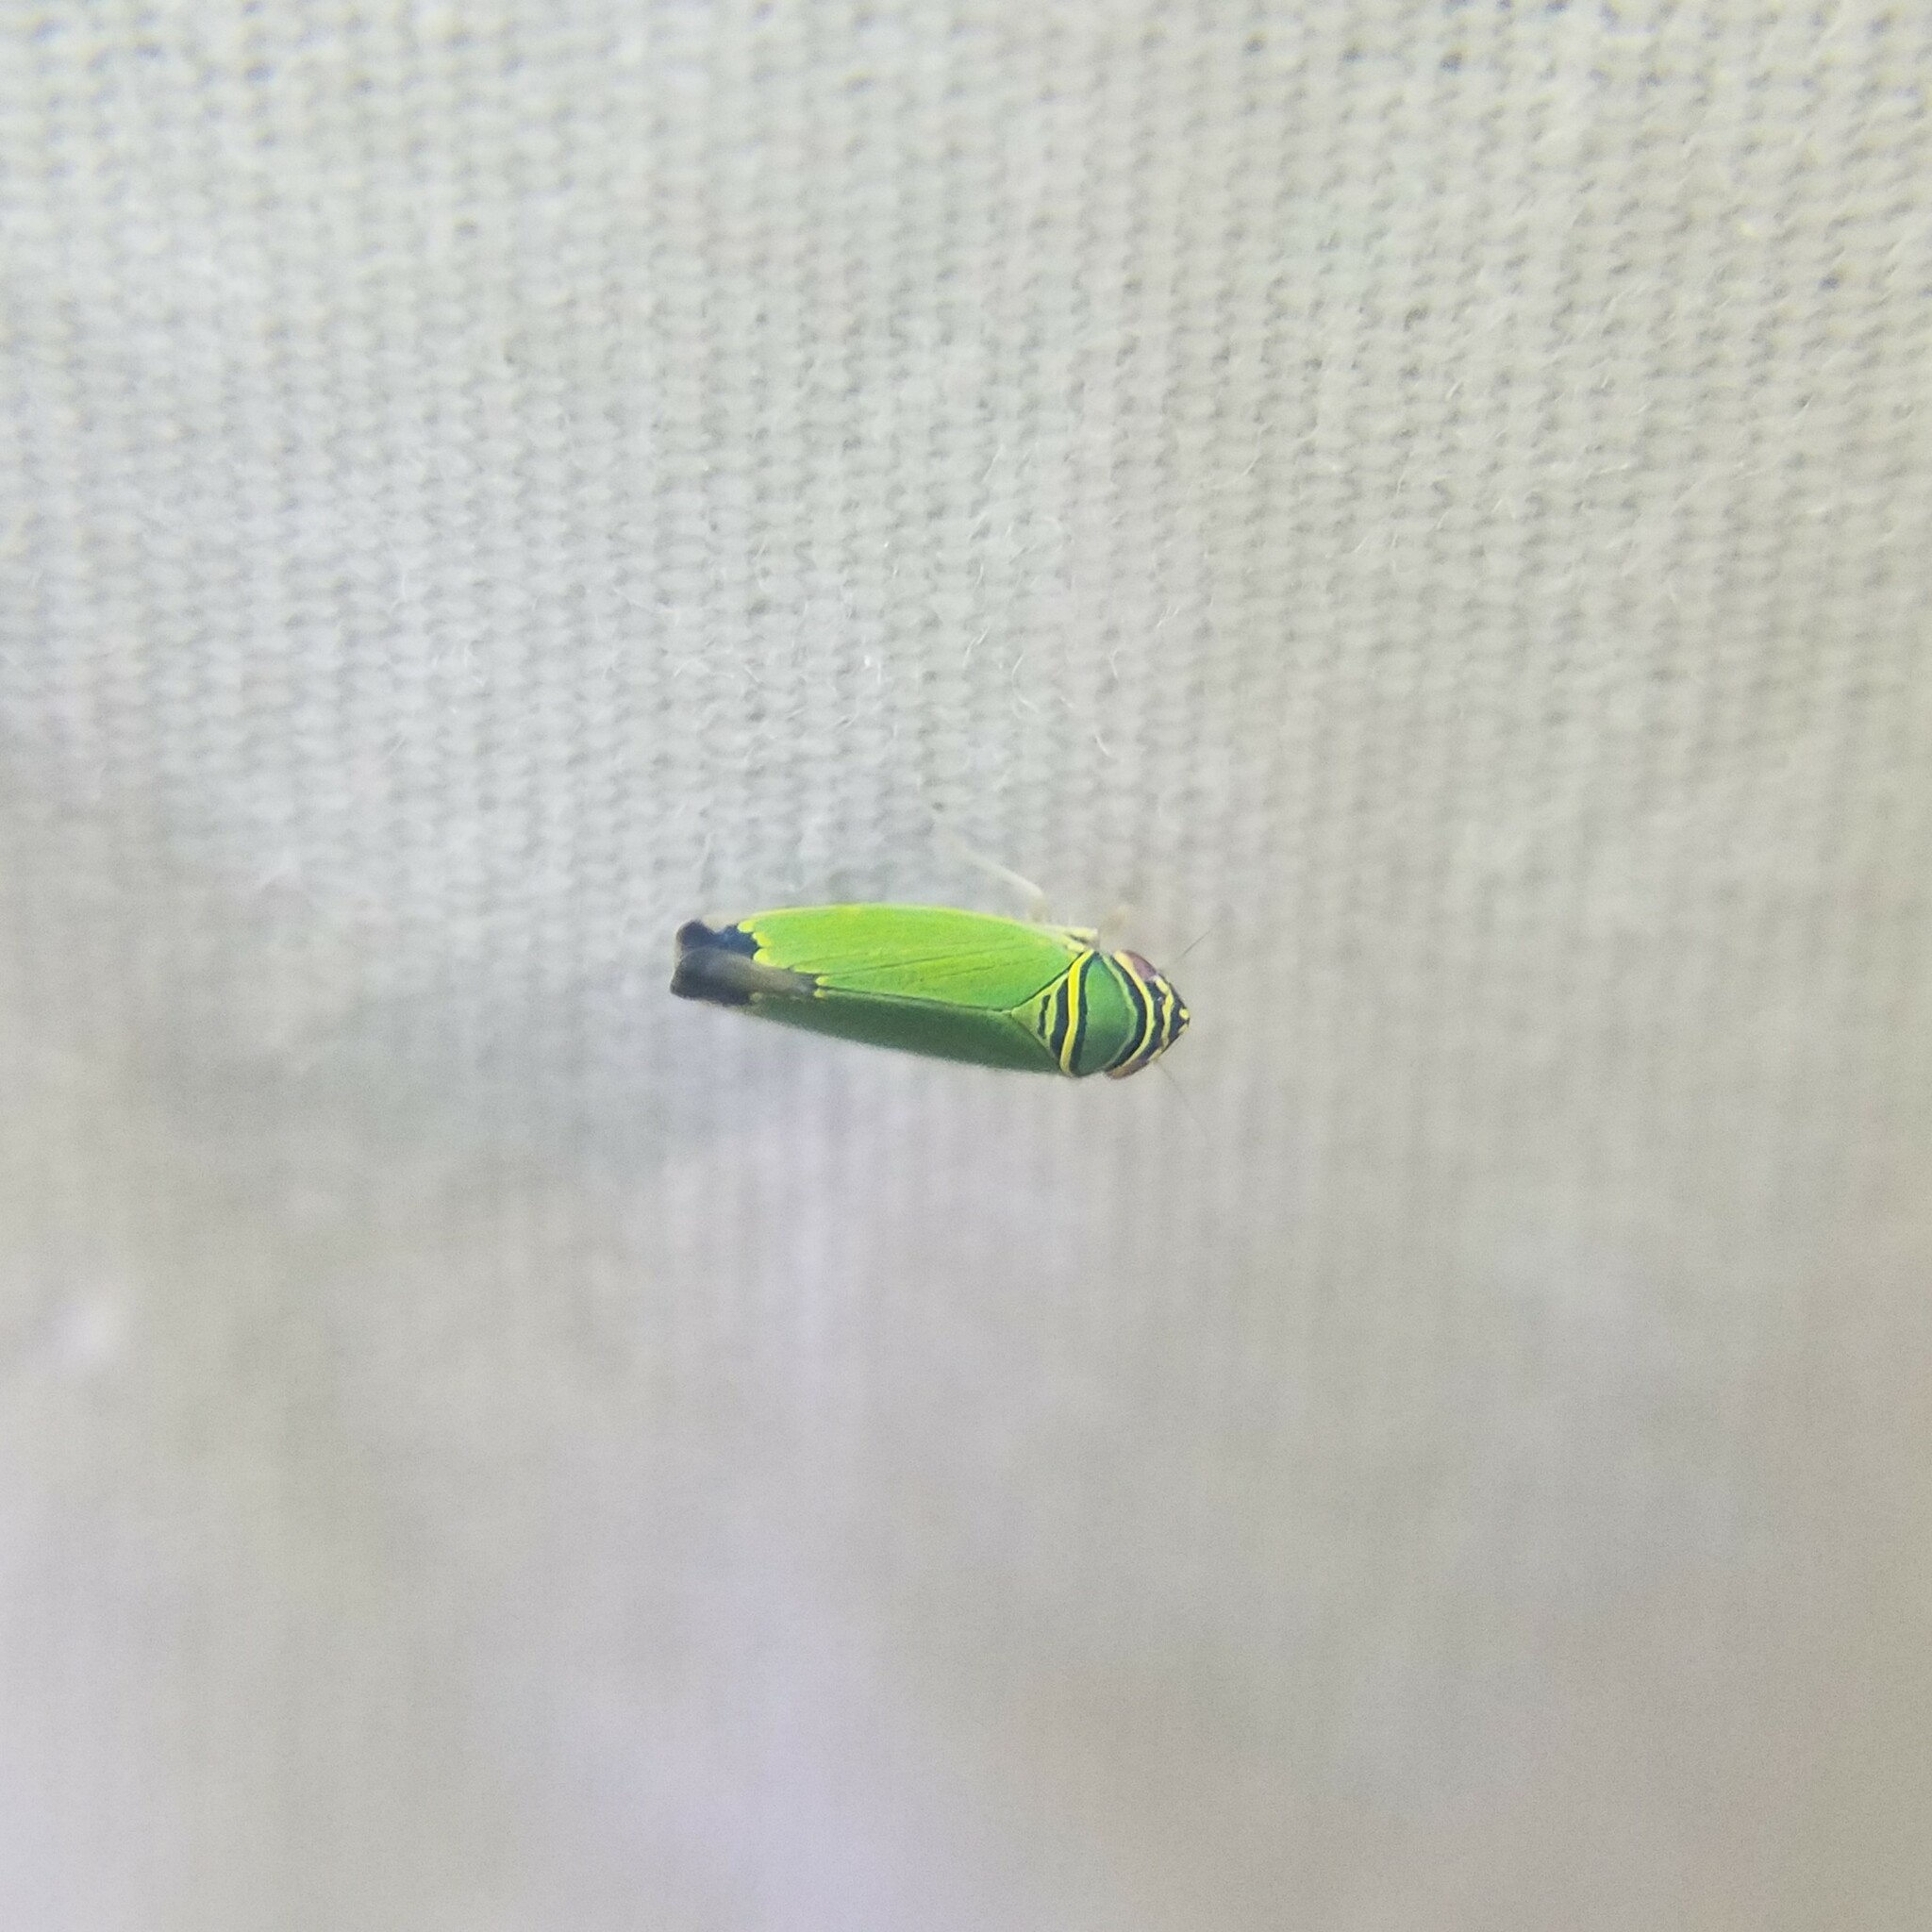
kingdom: Animalia
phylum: Arthropoda
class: Insecta
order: Hemiptera
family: Cicadellidae
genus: Tylozygus
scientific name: Tylozygus geometricus
